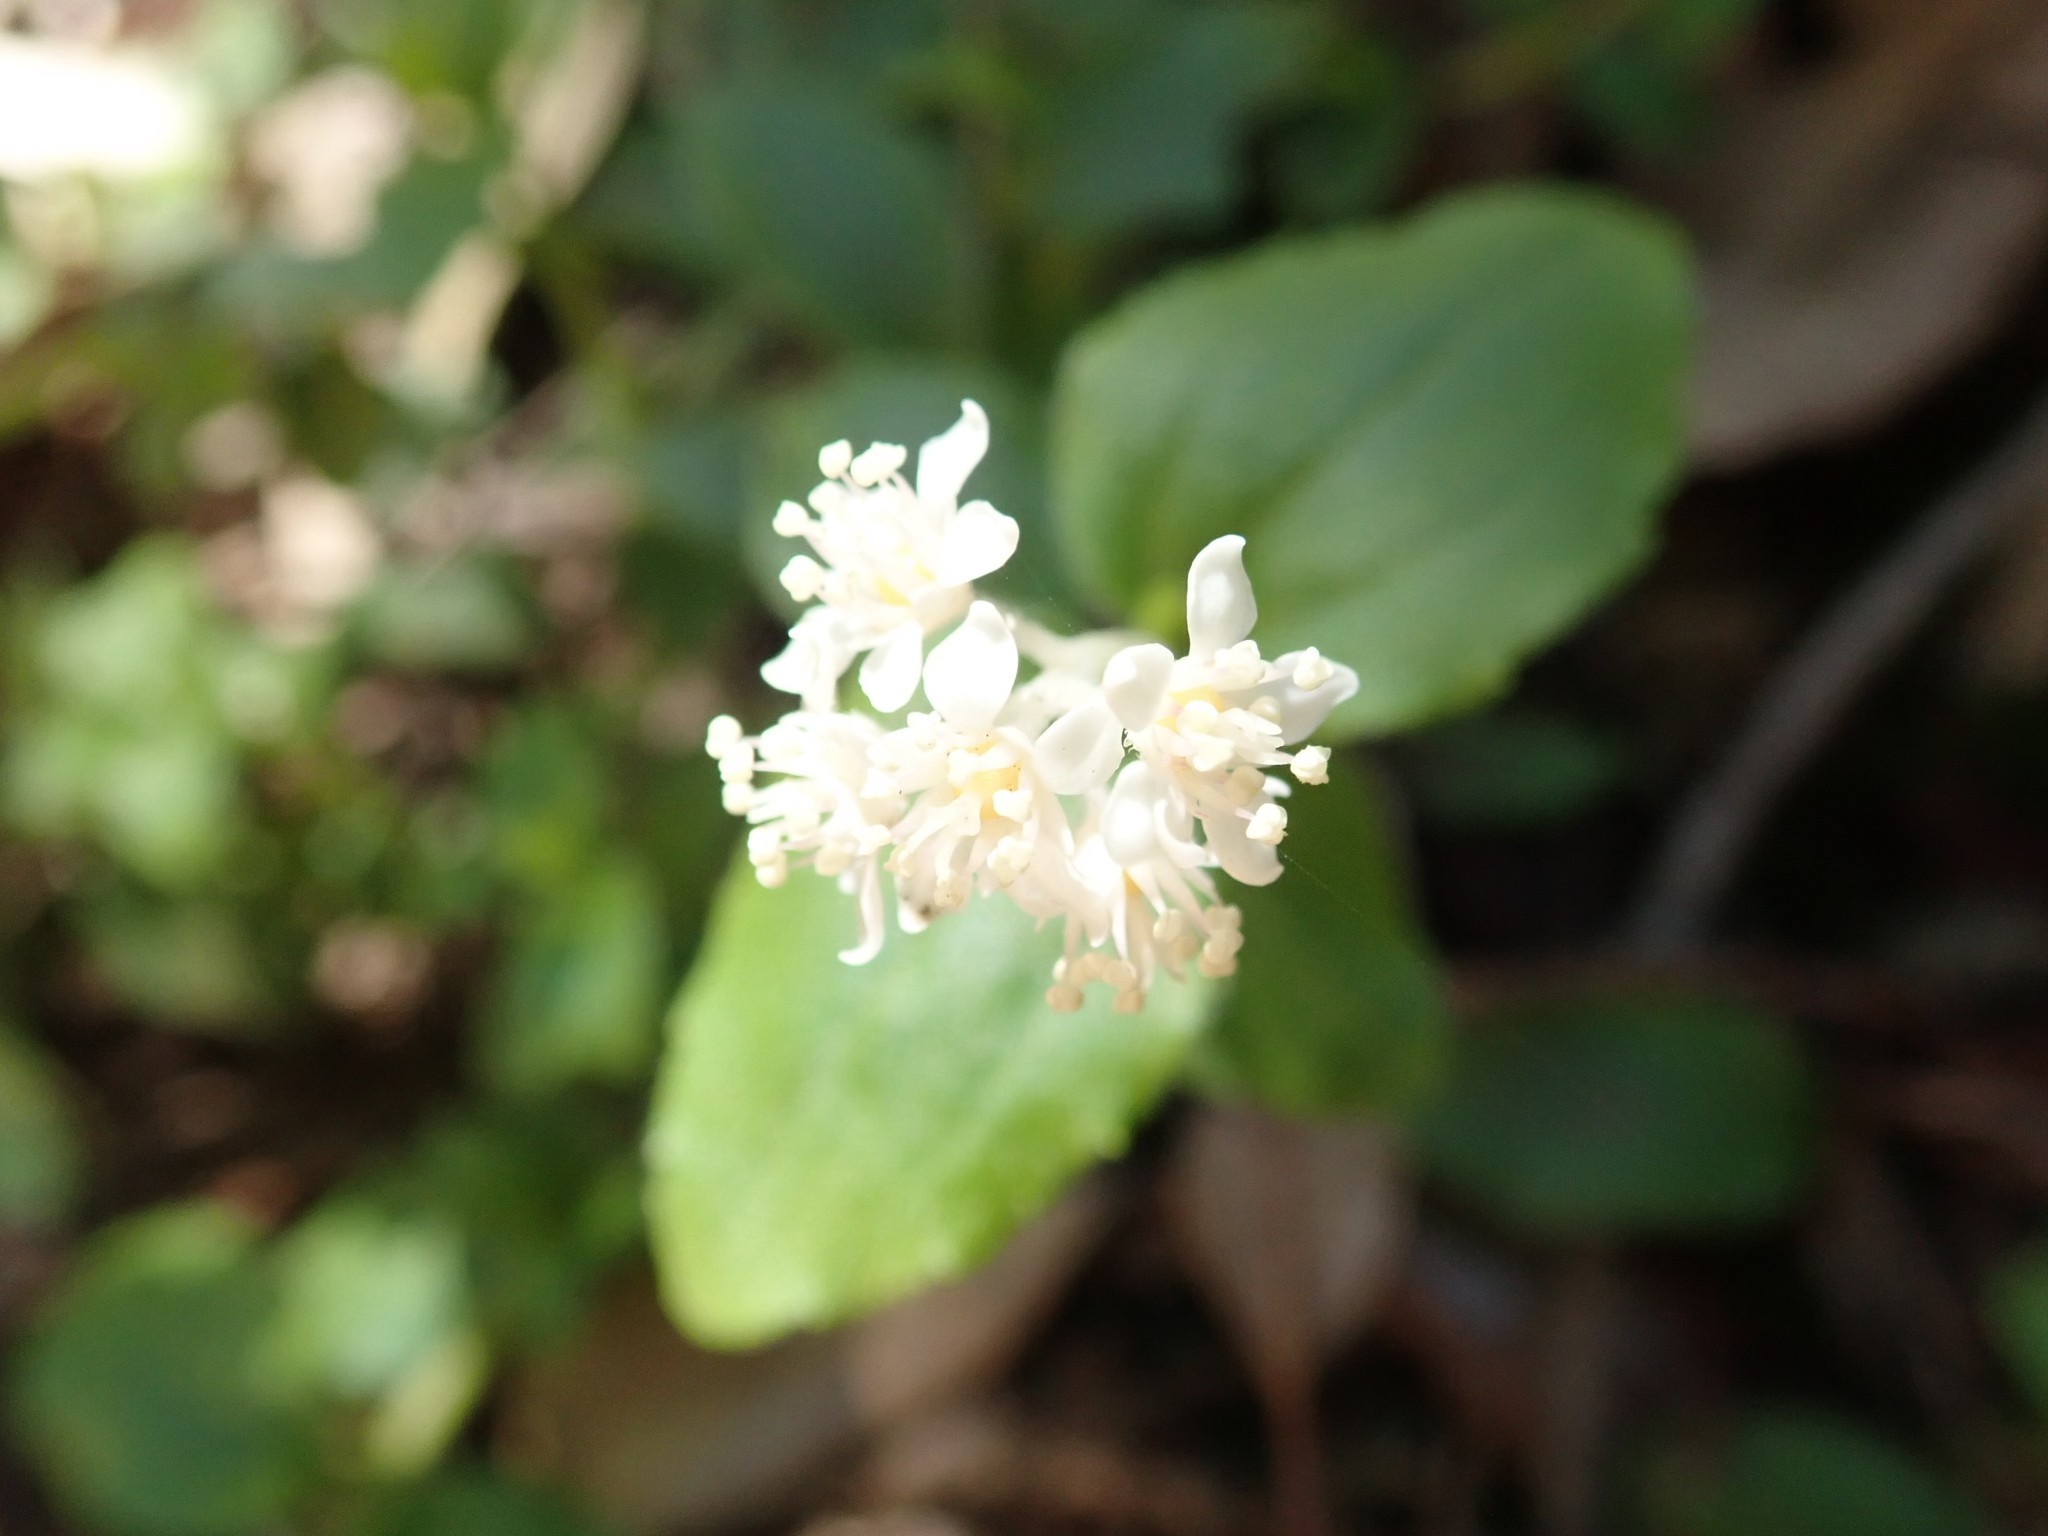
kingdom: Plantae
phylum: Tracheophyta
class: Magnoliopsida
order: Cornales
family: Hydrangeaceae
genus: Whipplea
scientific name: Whipplea modesta
